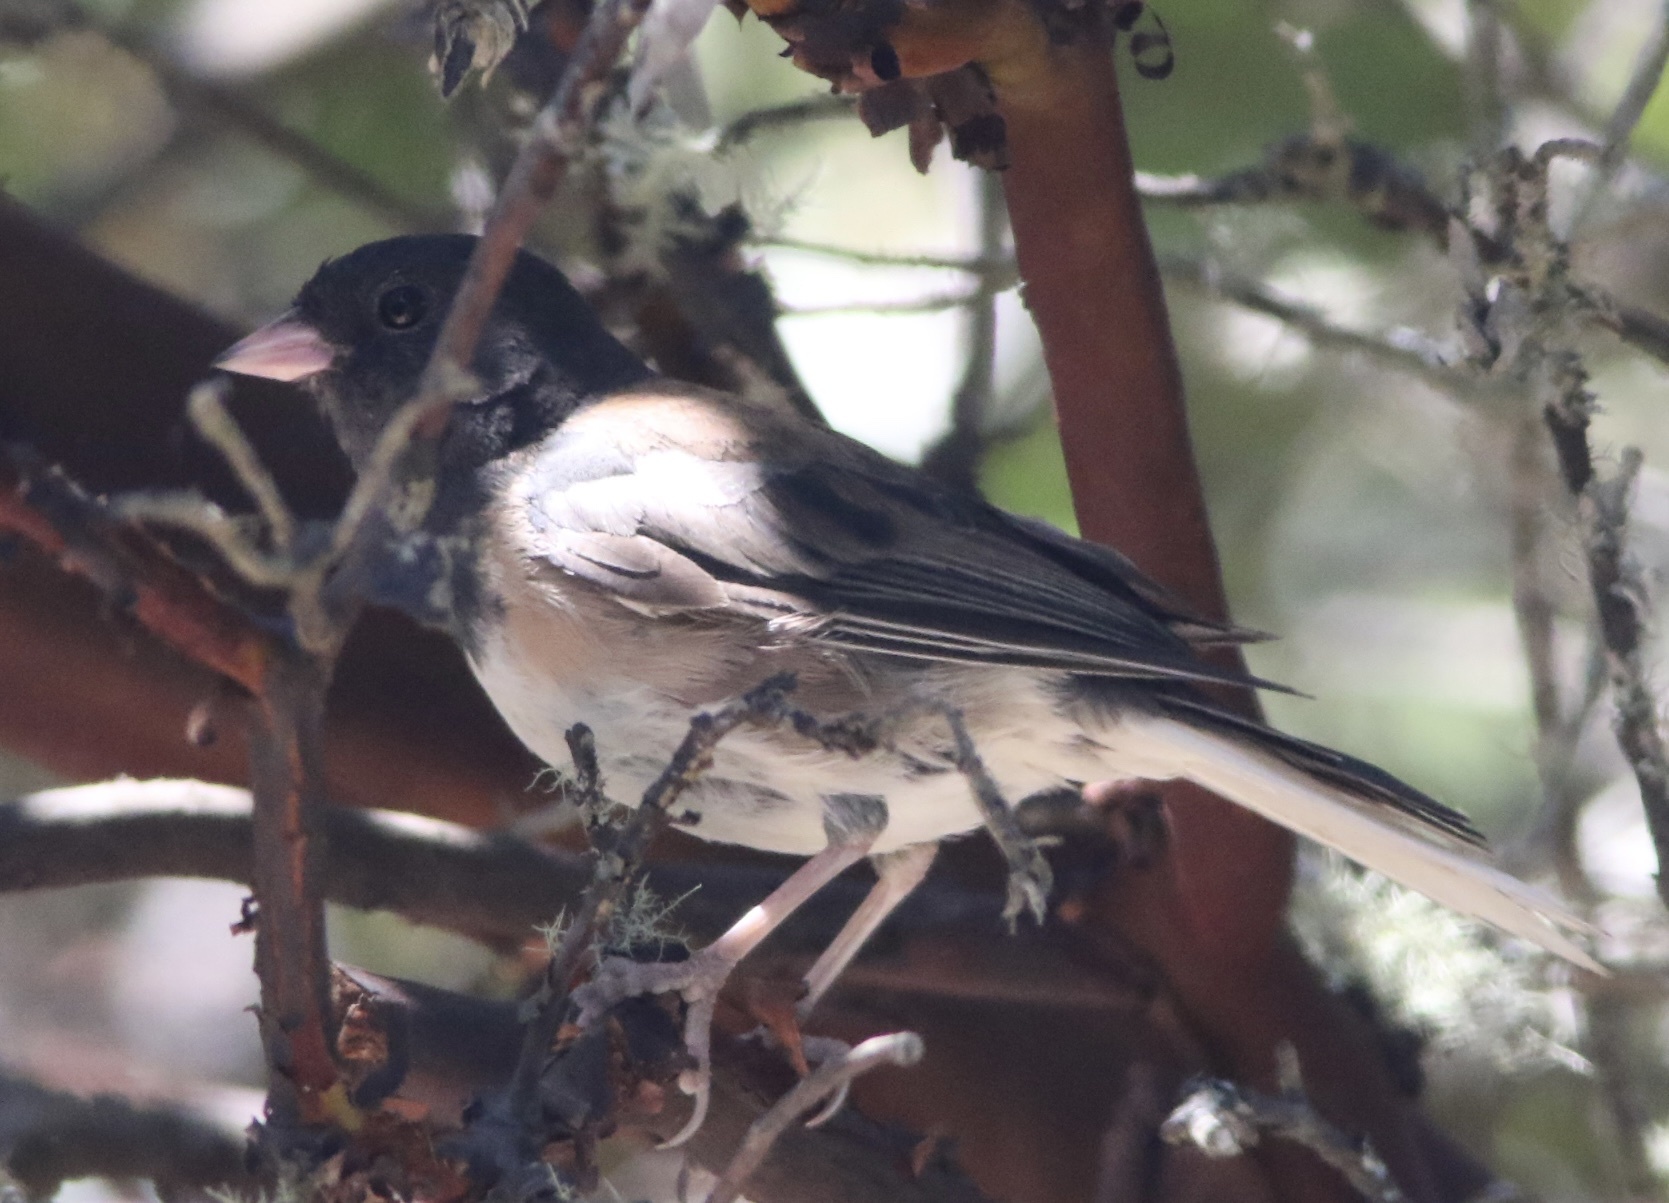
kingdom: Animalia
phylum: Chordata
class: Aves
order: Passeriformes
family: Passerellidae
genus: Junco
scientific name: Junco hyemalis
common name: Dark-eyed junco
